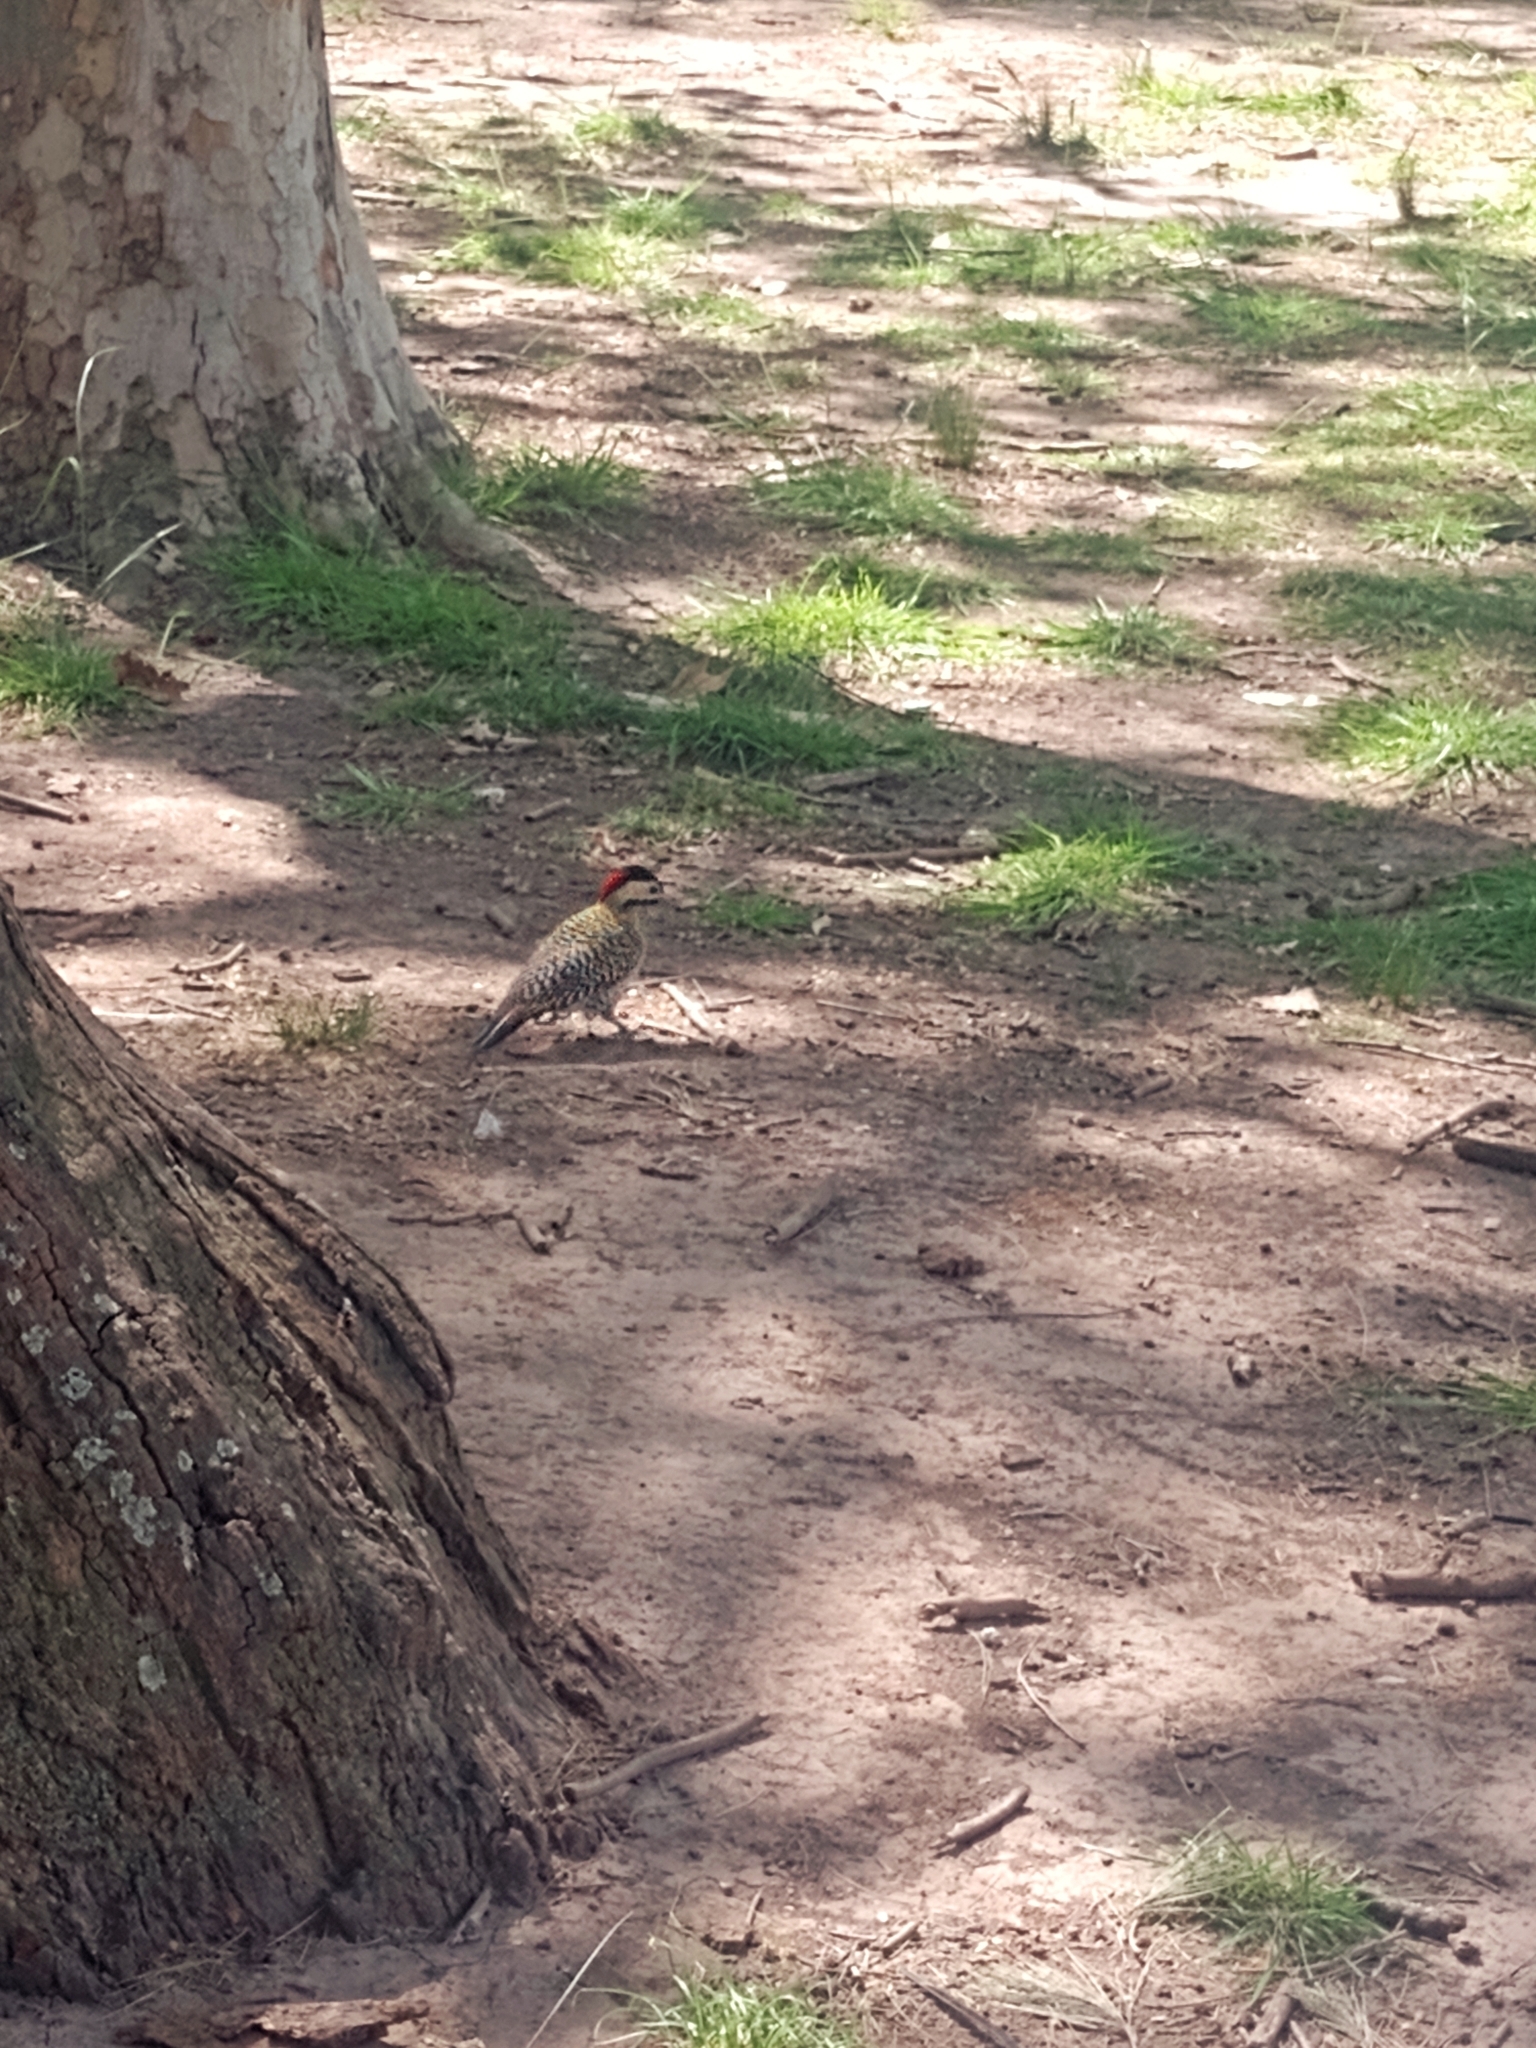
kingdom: Animalia
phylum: Chordata
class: Aves
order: Piciformes
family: Picidae
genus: Colaptes
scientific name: Colaptes melanochloros
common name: Green-barred woodpecker
